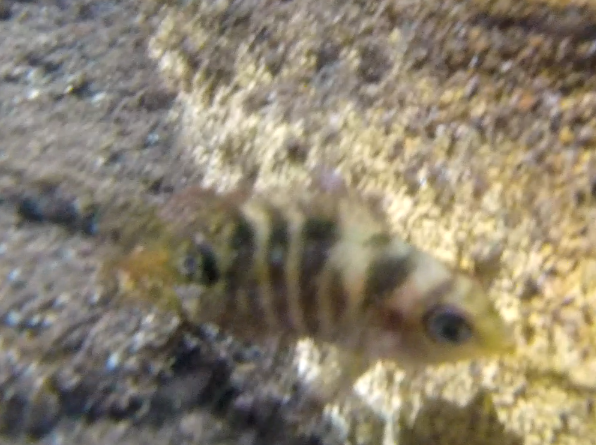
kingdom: Animalia
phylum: Chordata
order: Perciformes
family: Cichlidae
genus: Mayaheros
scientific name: Mayaheros urophthalmus
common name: Mayan cichlid
